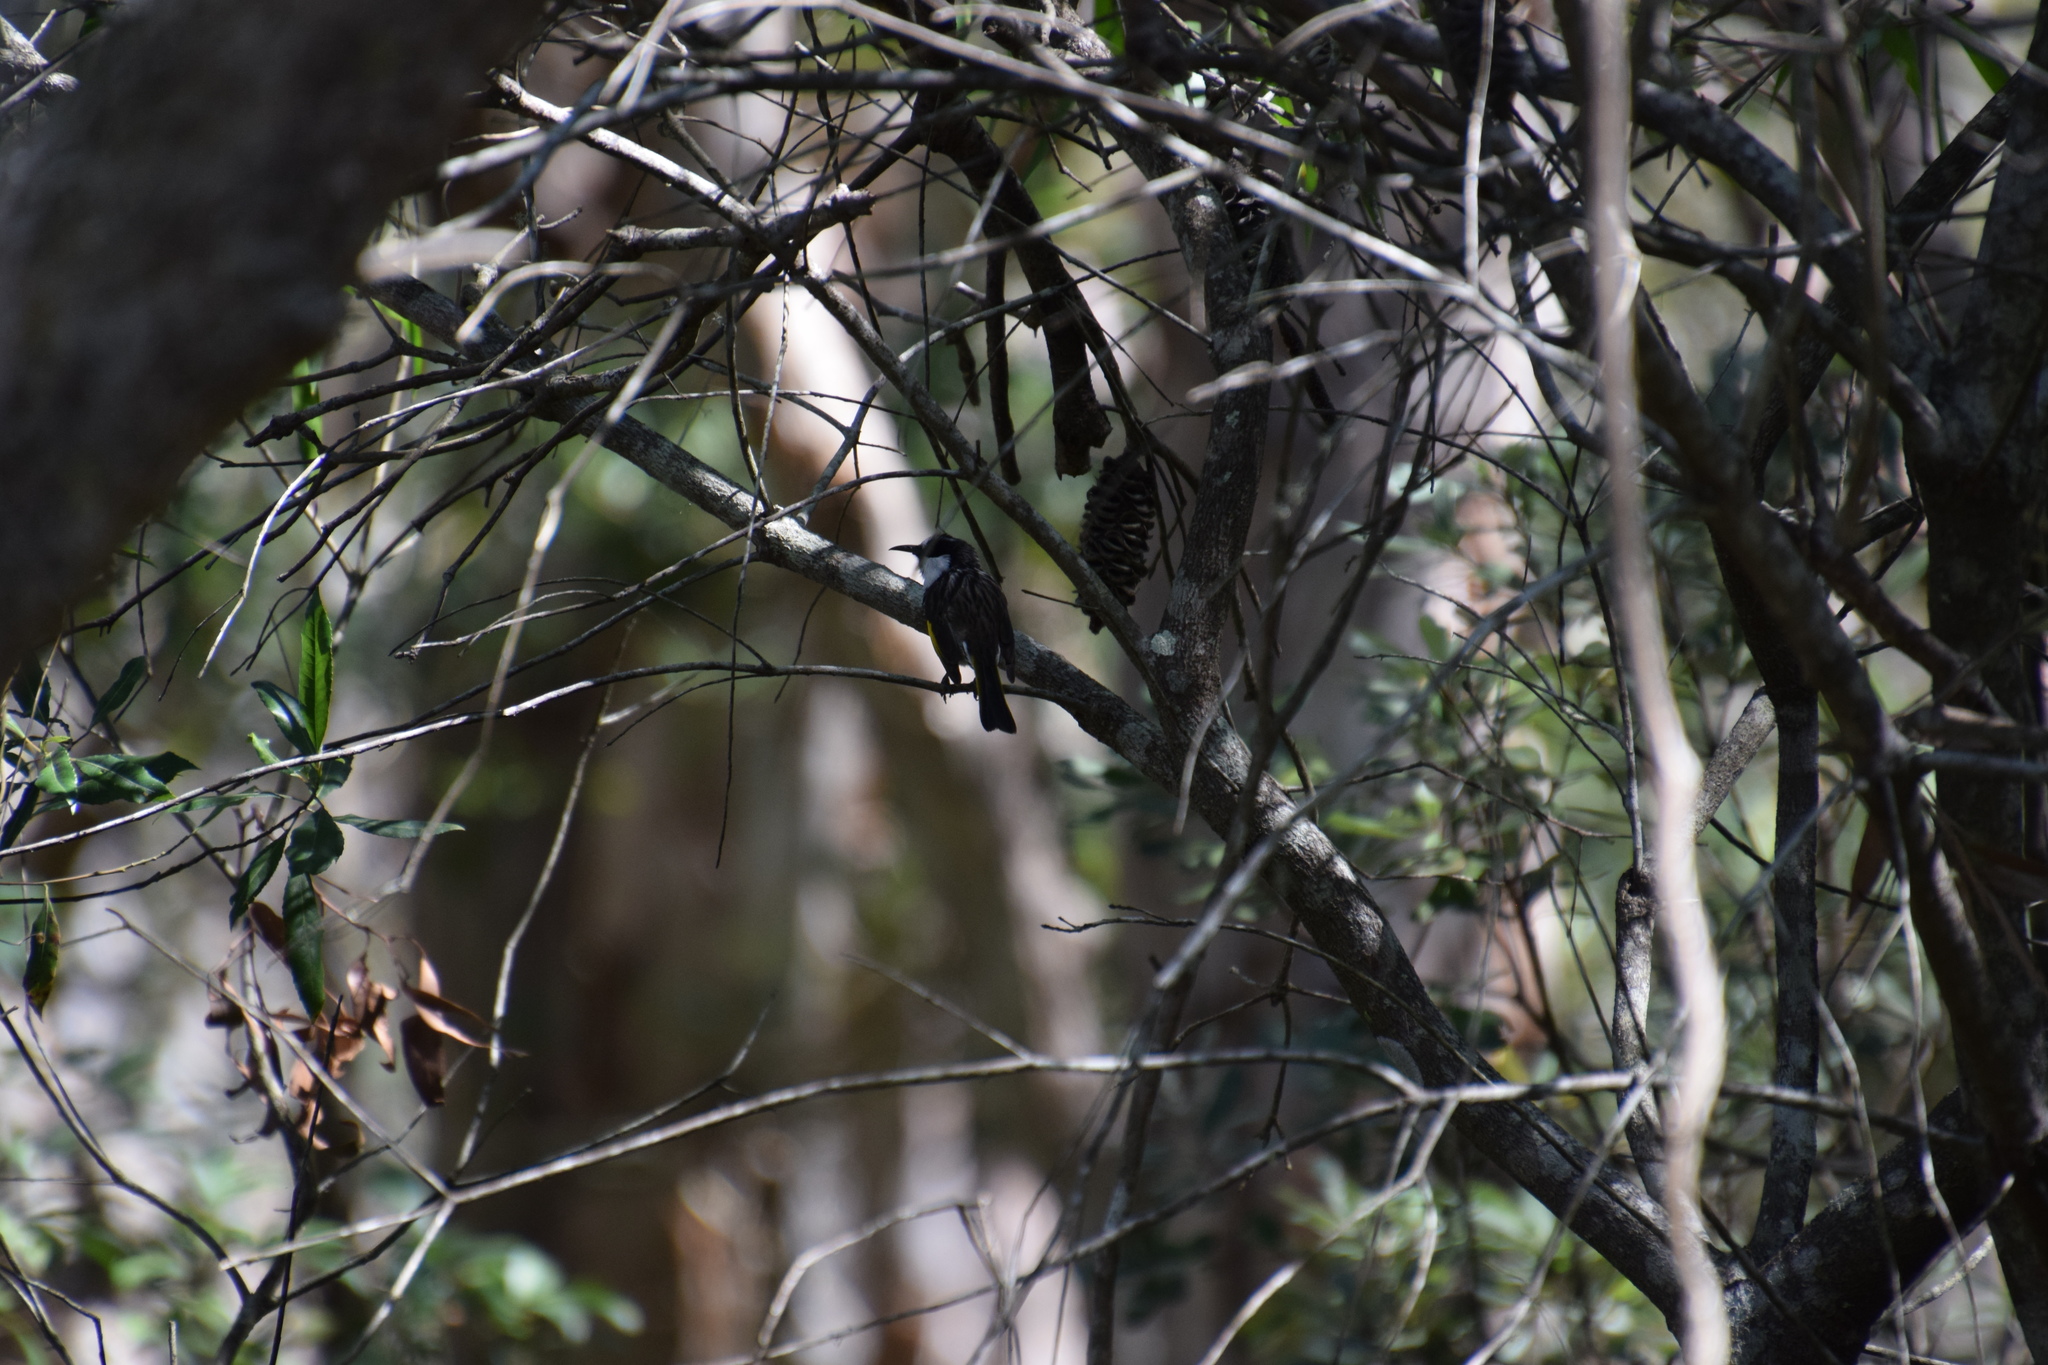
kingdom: Animalia
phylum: Chordata
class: Aves
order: Passeriformes
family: Meliphagidae
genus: Phylidonyris
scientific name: Phylidonyris niger
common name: White-cheeked honeyeater
